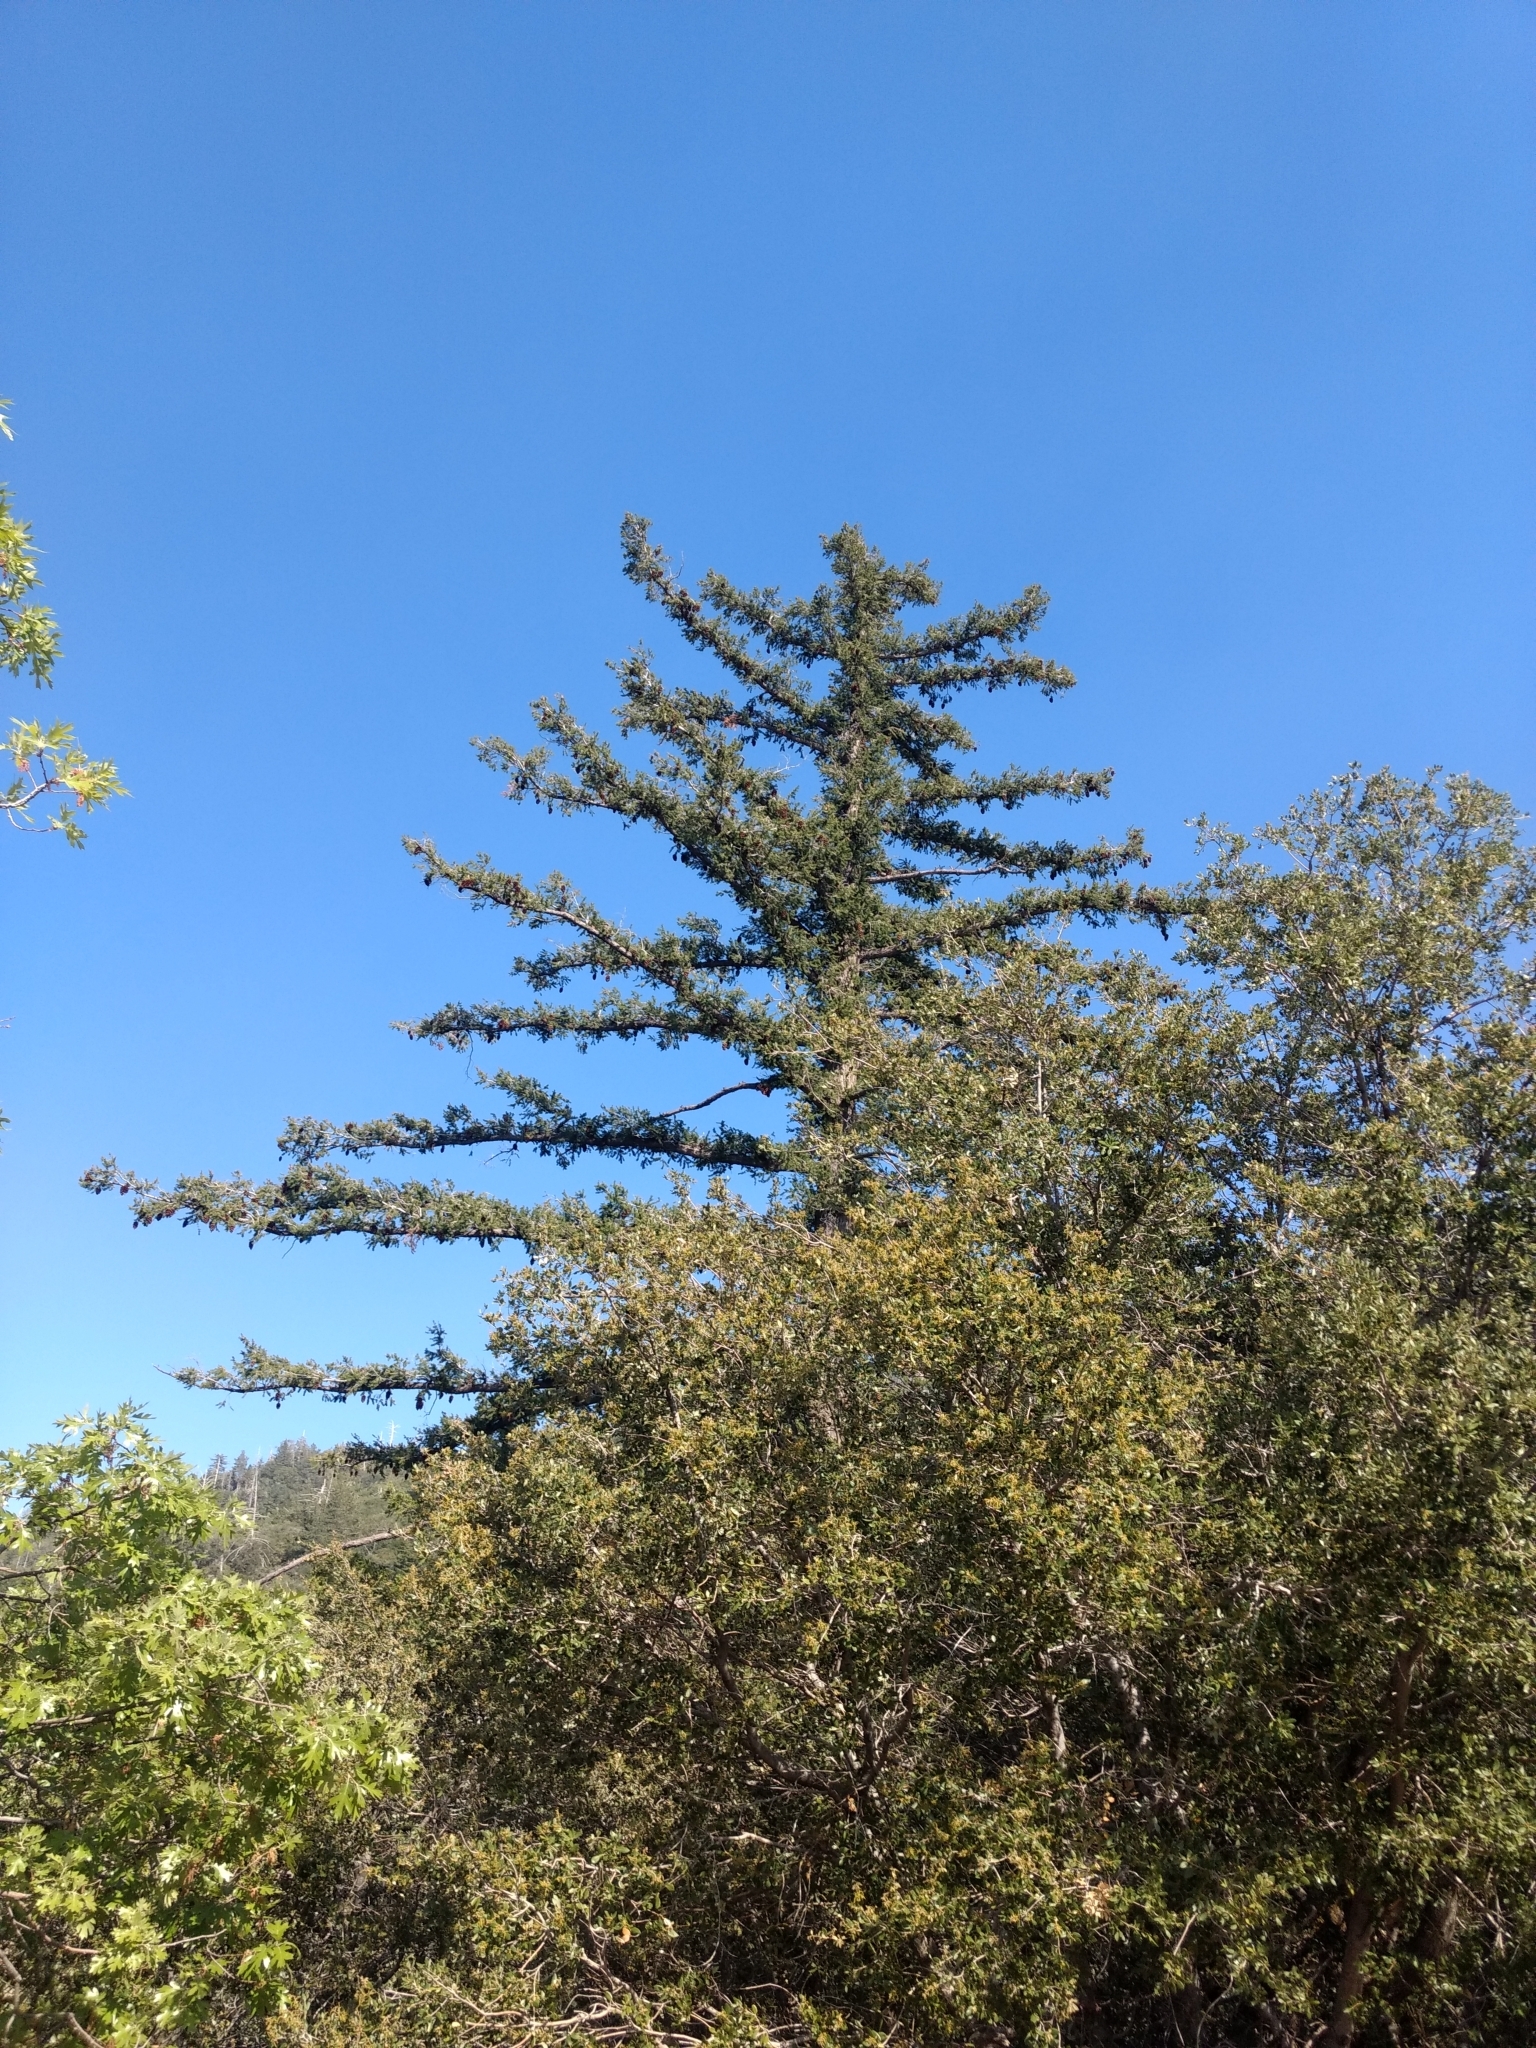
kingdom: Plantae
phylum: Tracheophyta
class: Pinopsida
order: Pinales
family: Pinaceae
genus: Pseudotsuga
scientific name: Pseudotsuga macrocarpa
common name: Big-cone douglas-fir
